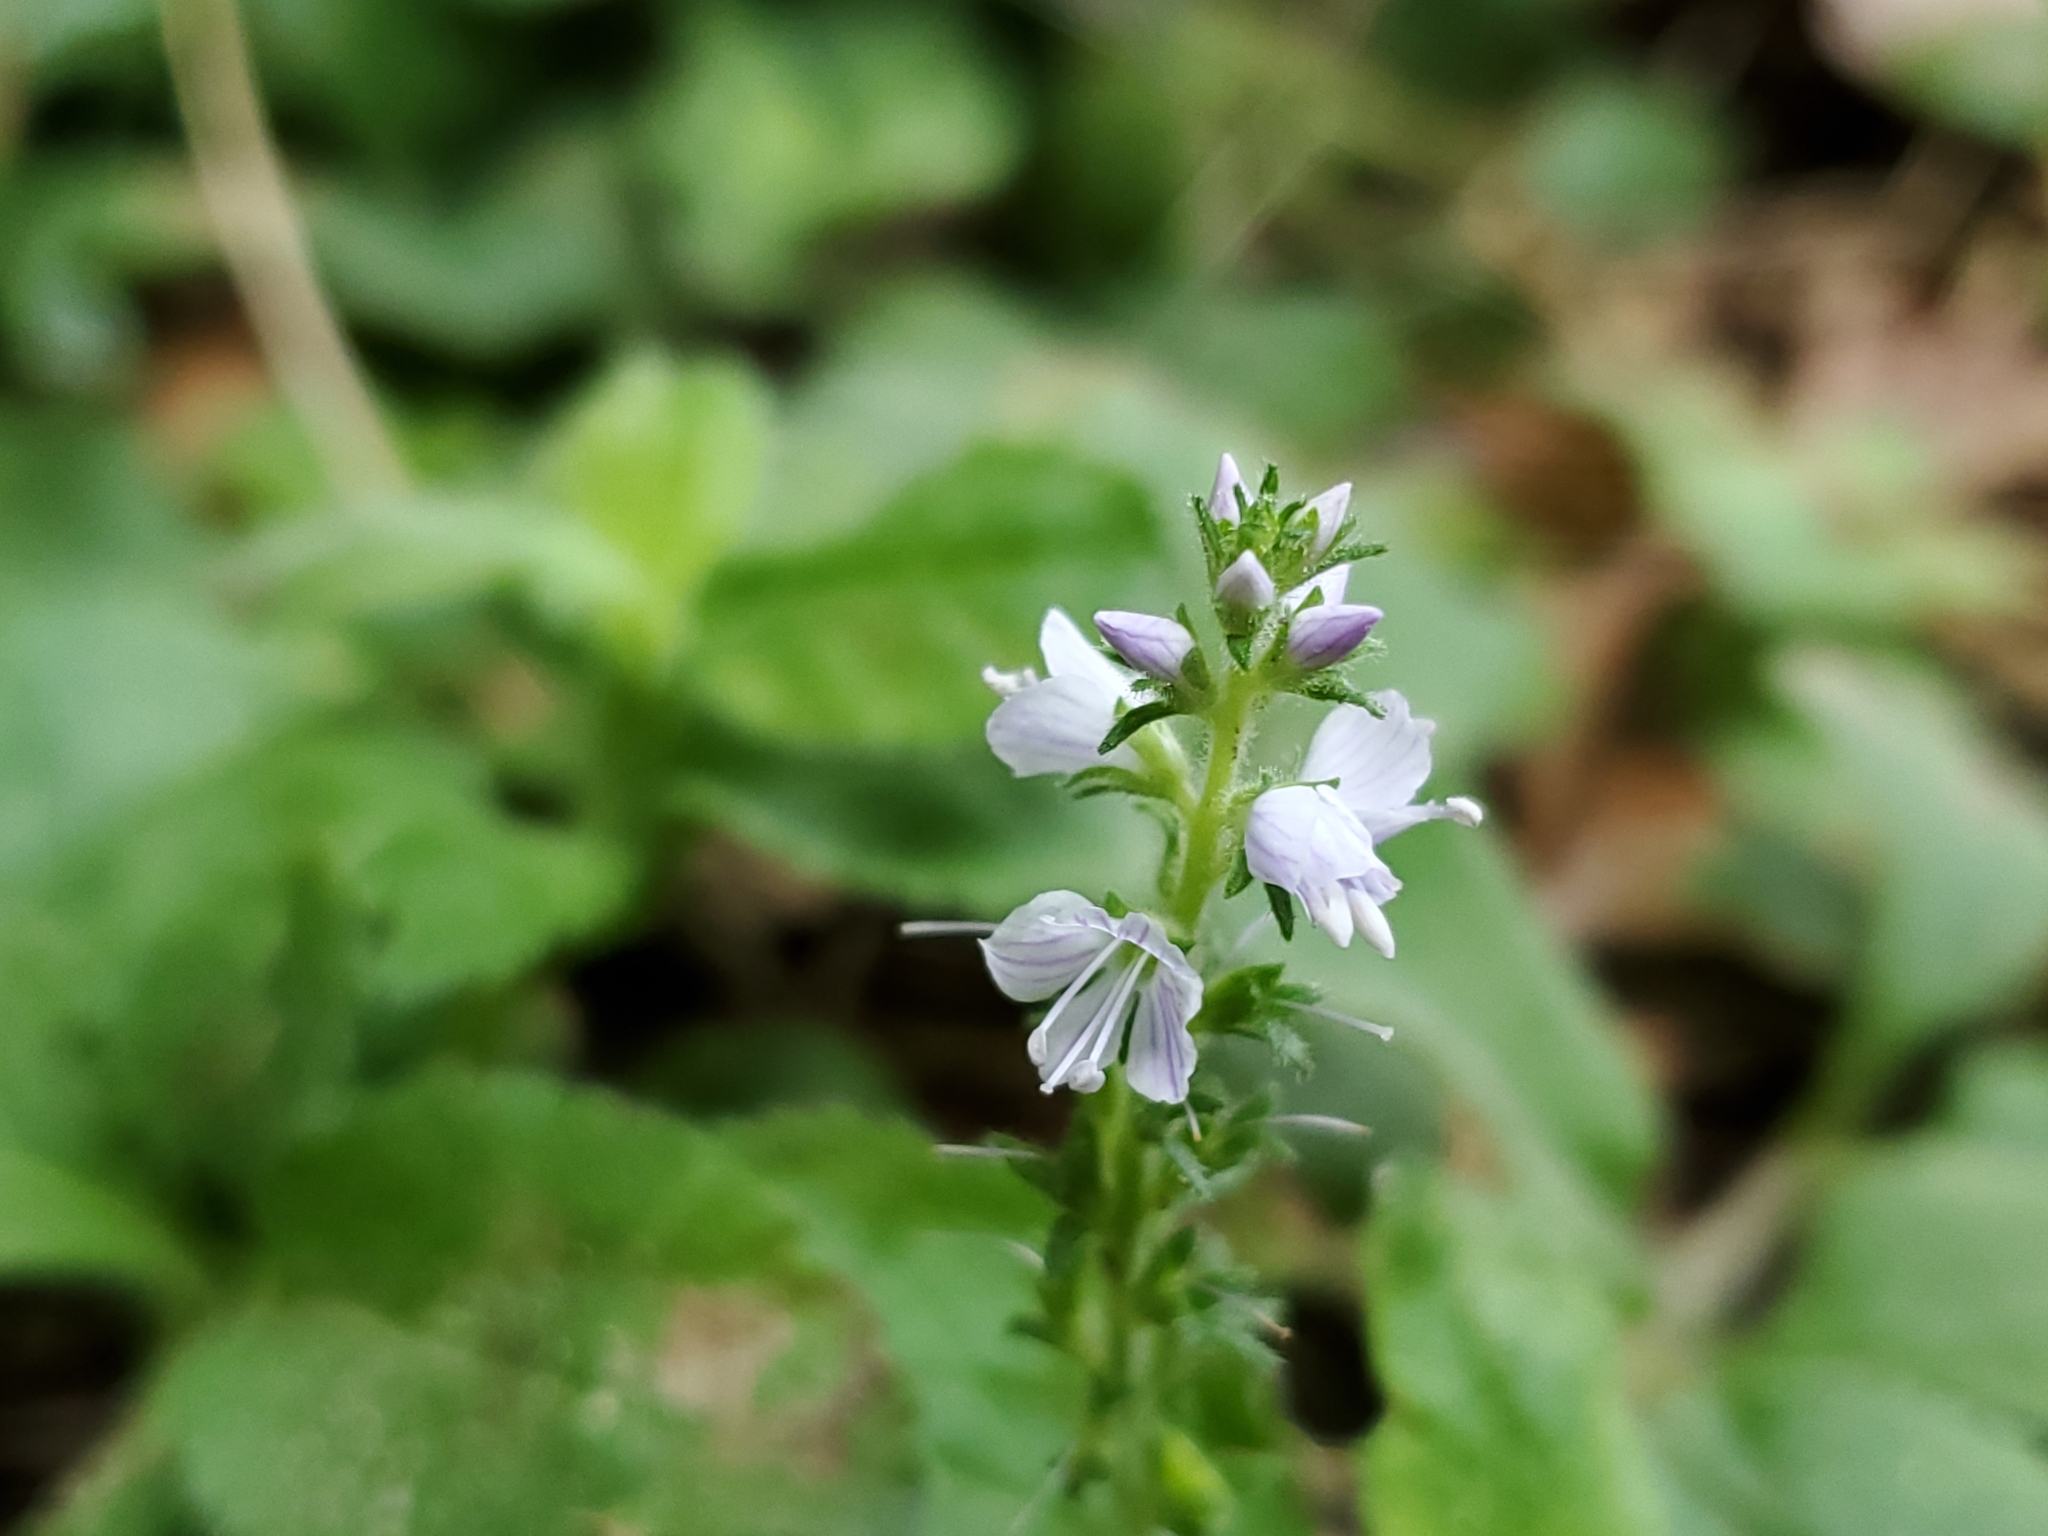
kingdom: Plantae
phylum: Tracheophyta
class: Magnoliopsida
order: Lamiales
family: Plantaginaceae
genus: Veronica
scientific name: Veronica officinalis
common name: Common speedwell
